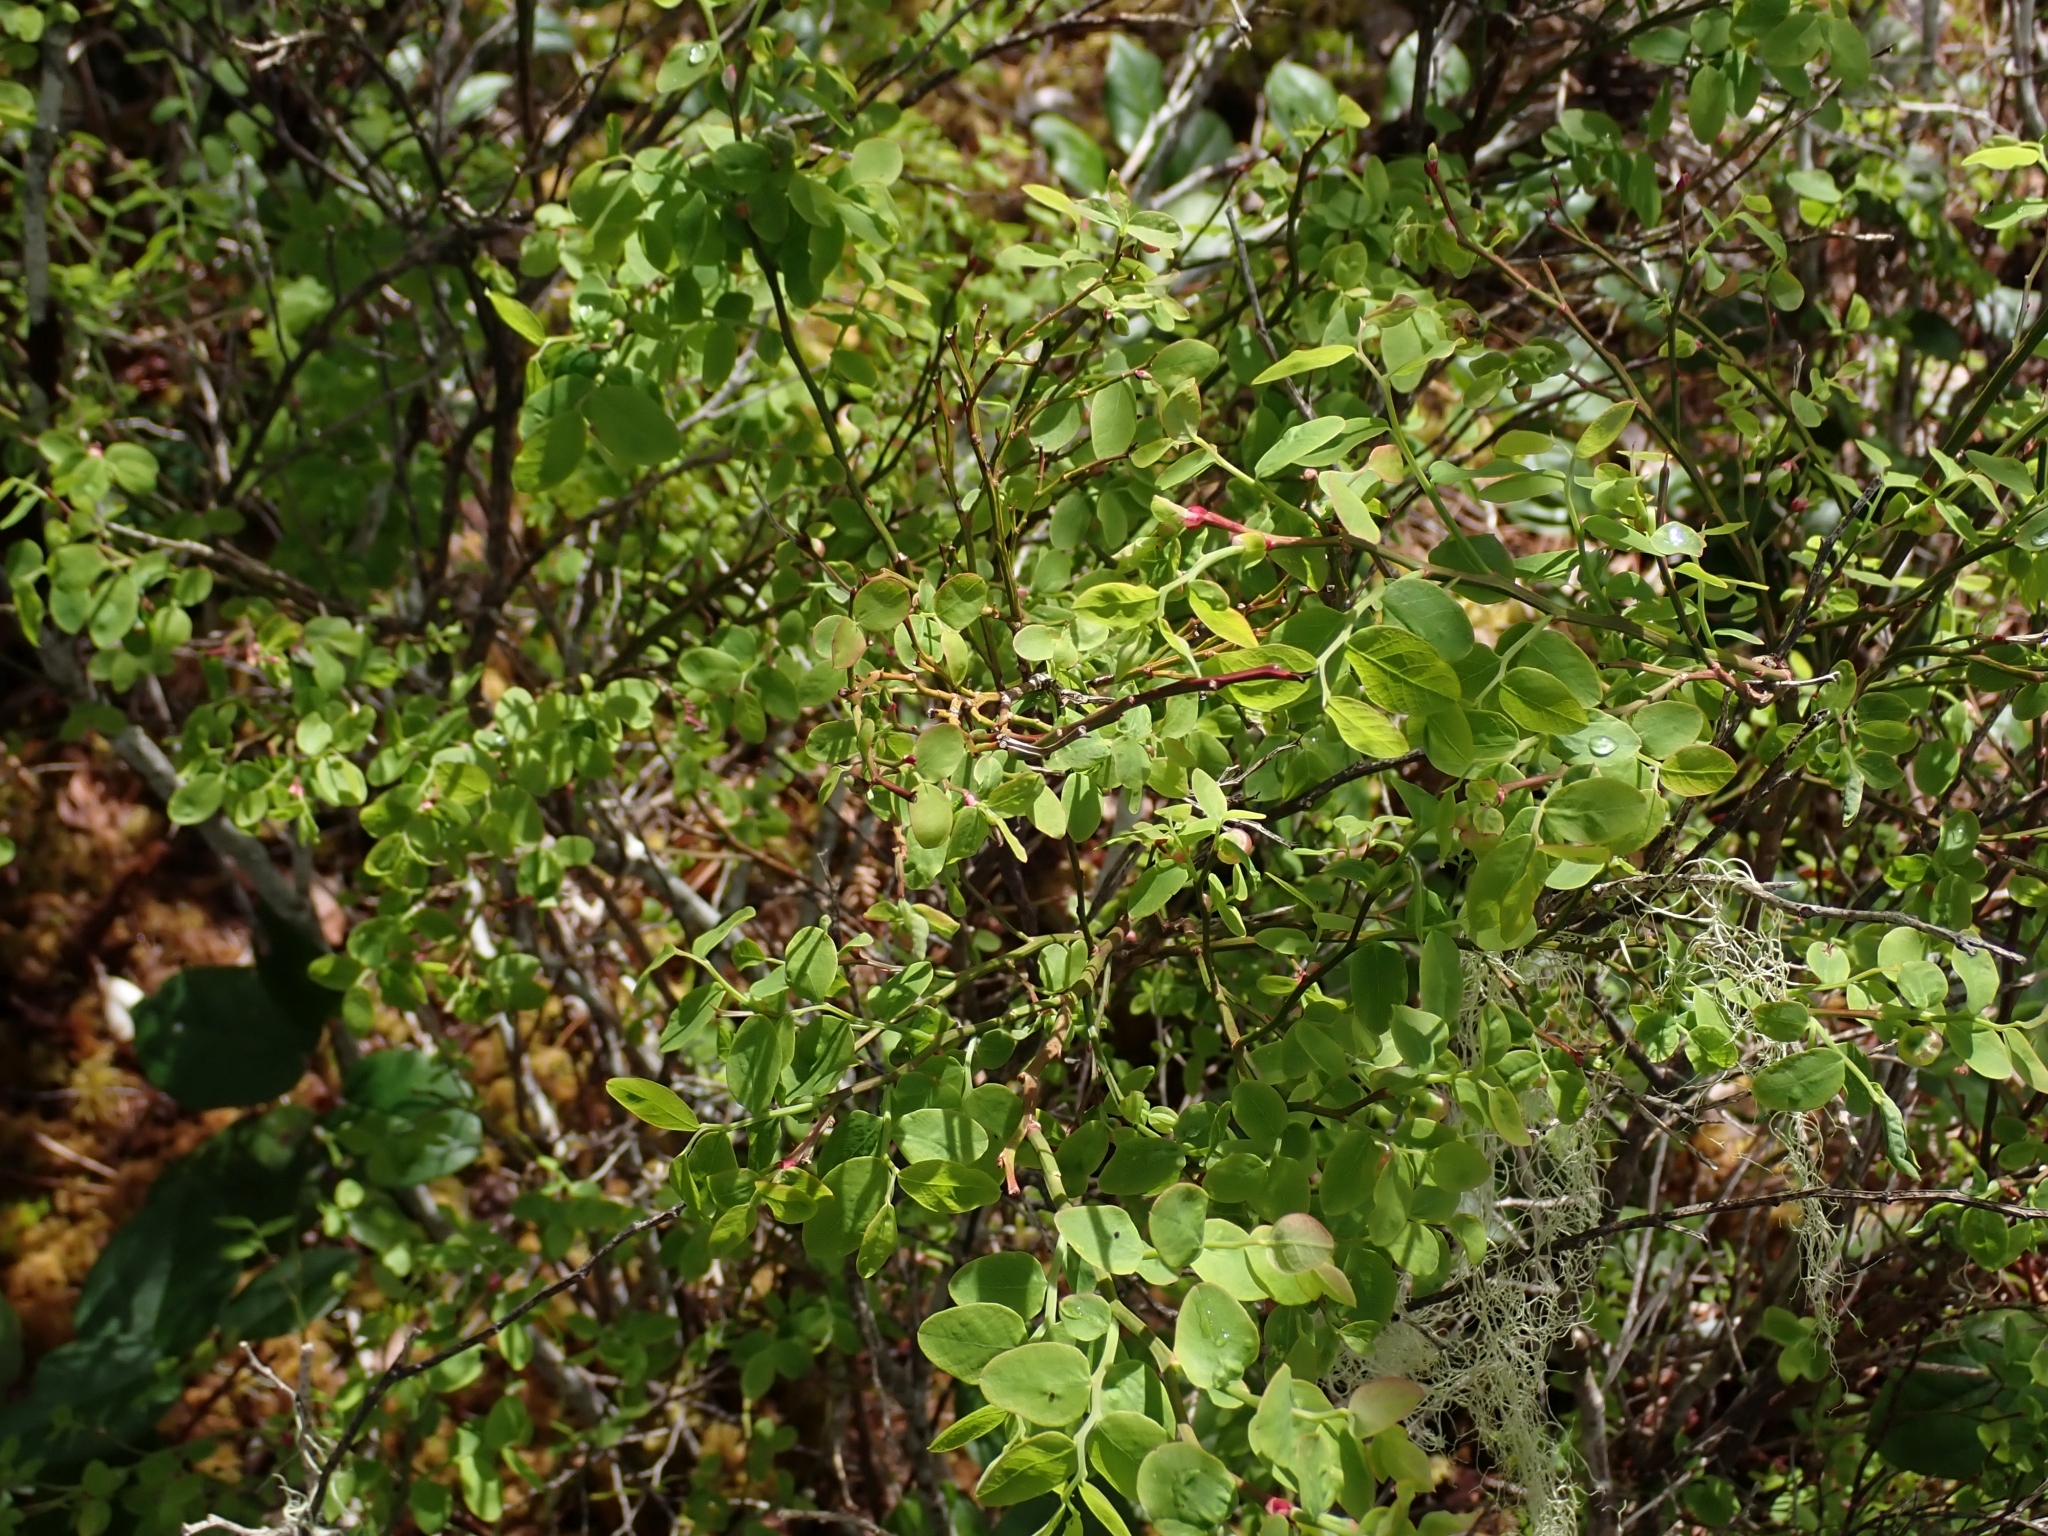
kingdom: Plantae
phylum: Tracheophyta
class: Magnoliopsida
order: Ericales
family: Ericaceae
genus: Vaccinium
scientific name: Vaccinium parvifolium
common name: Red-huckleberry
